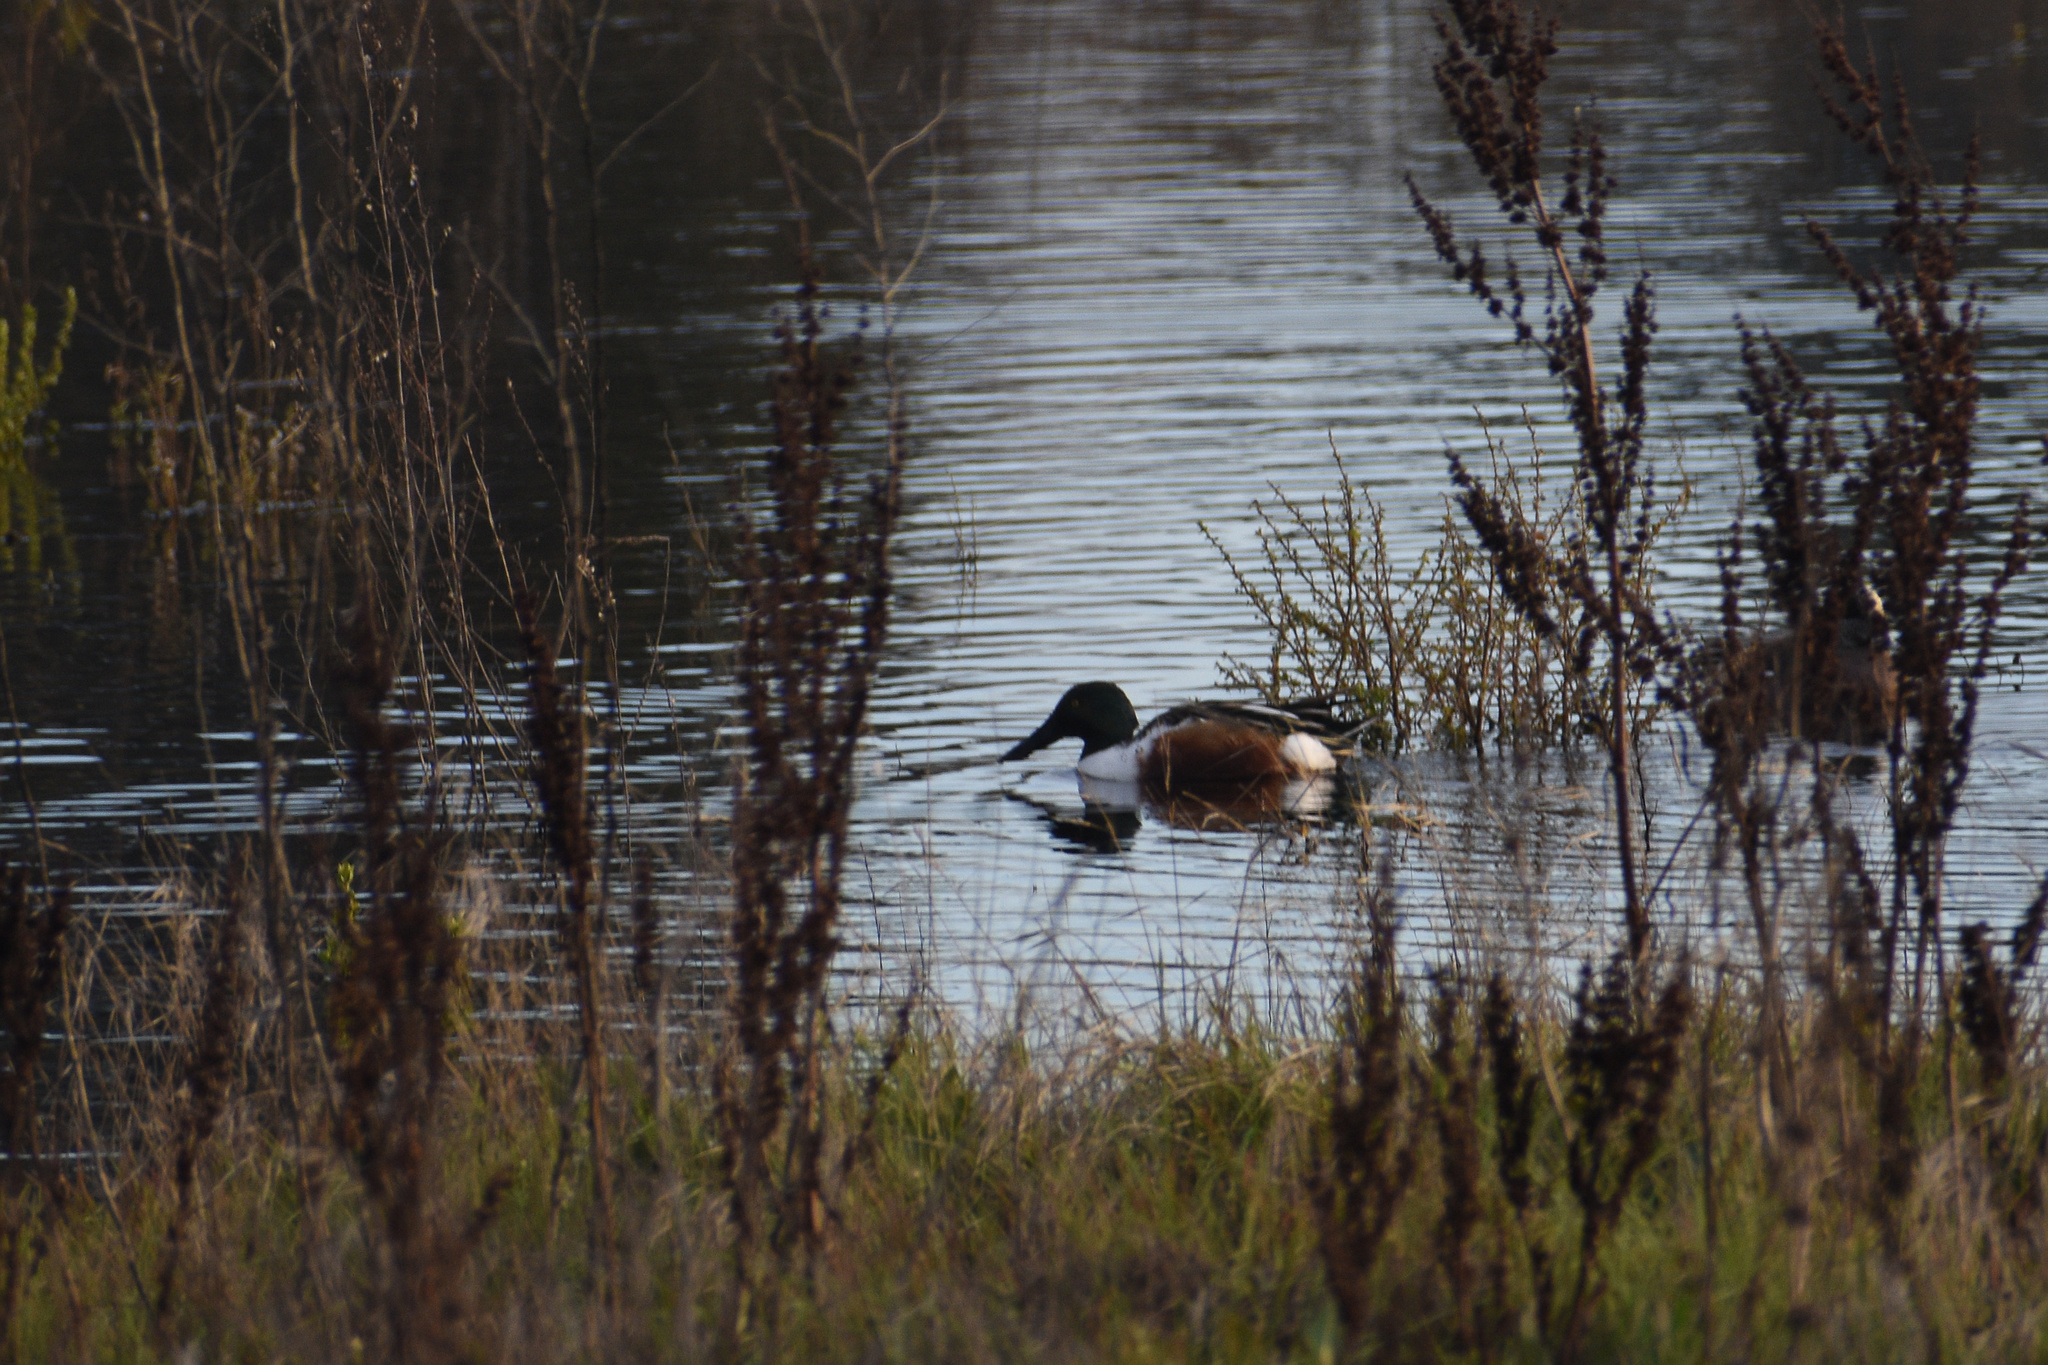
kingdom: Animalia
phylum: Chordata
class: Aves
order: Anseriformes
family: Anatidae
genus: Spatula
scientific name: Spatula clypeata
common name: Northern shoveler
